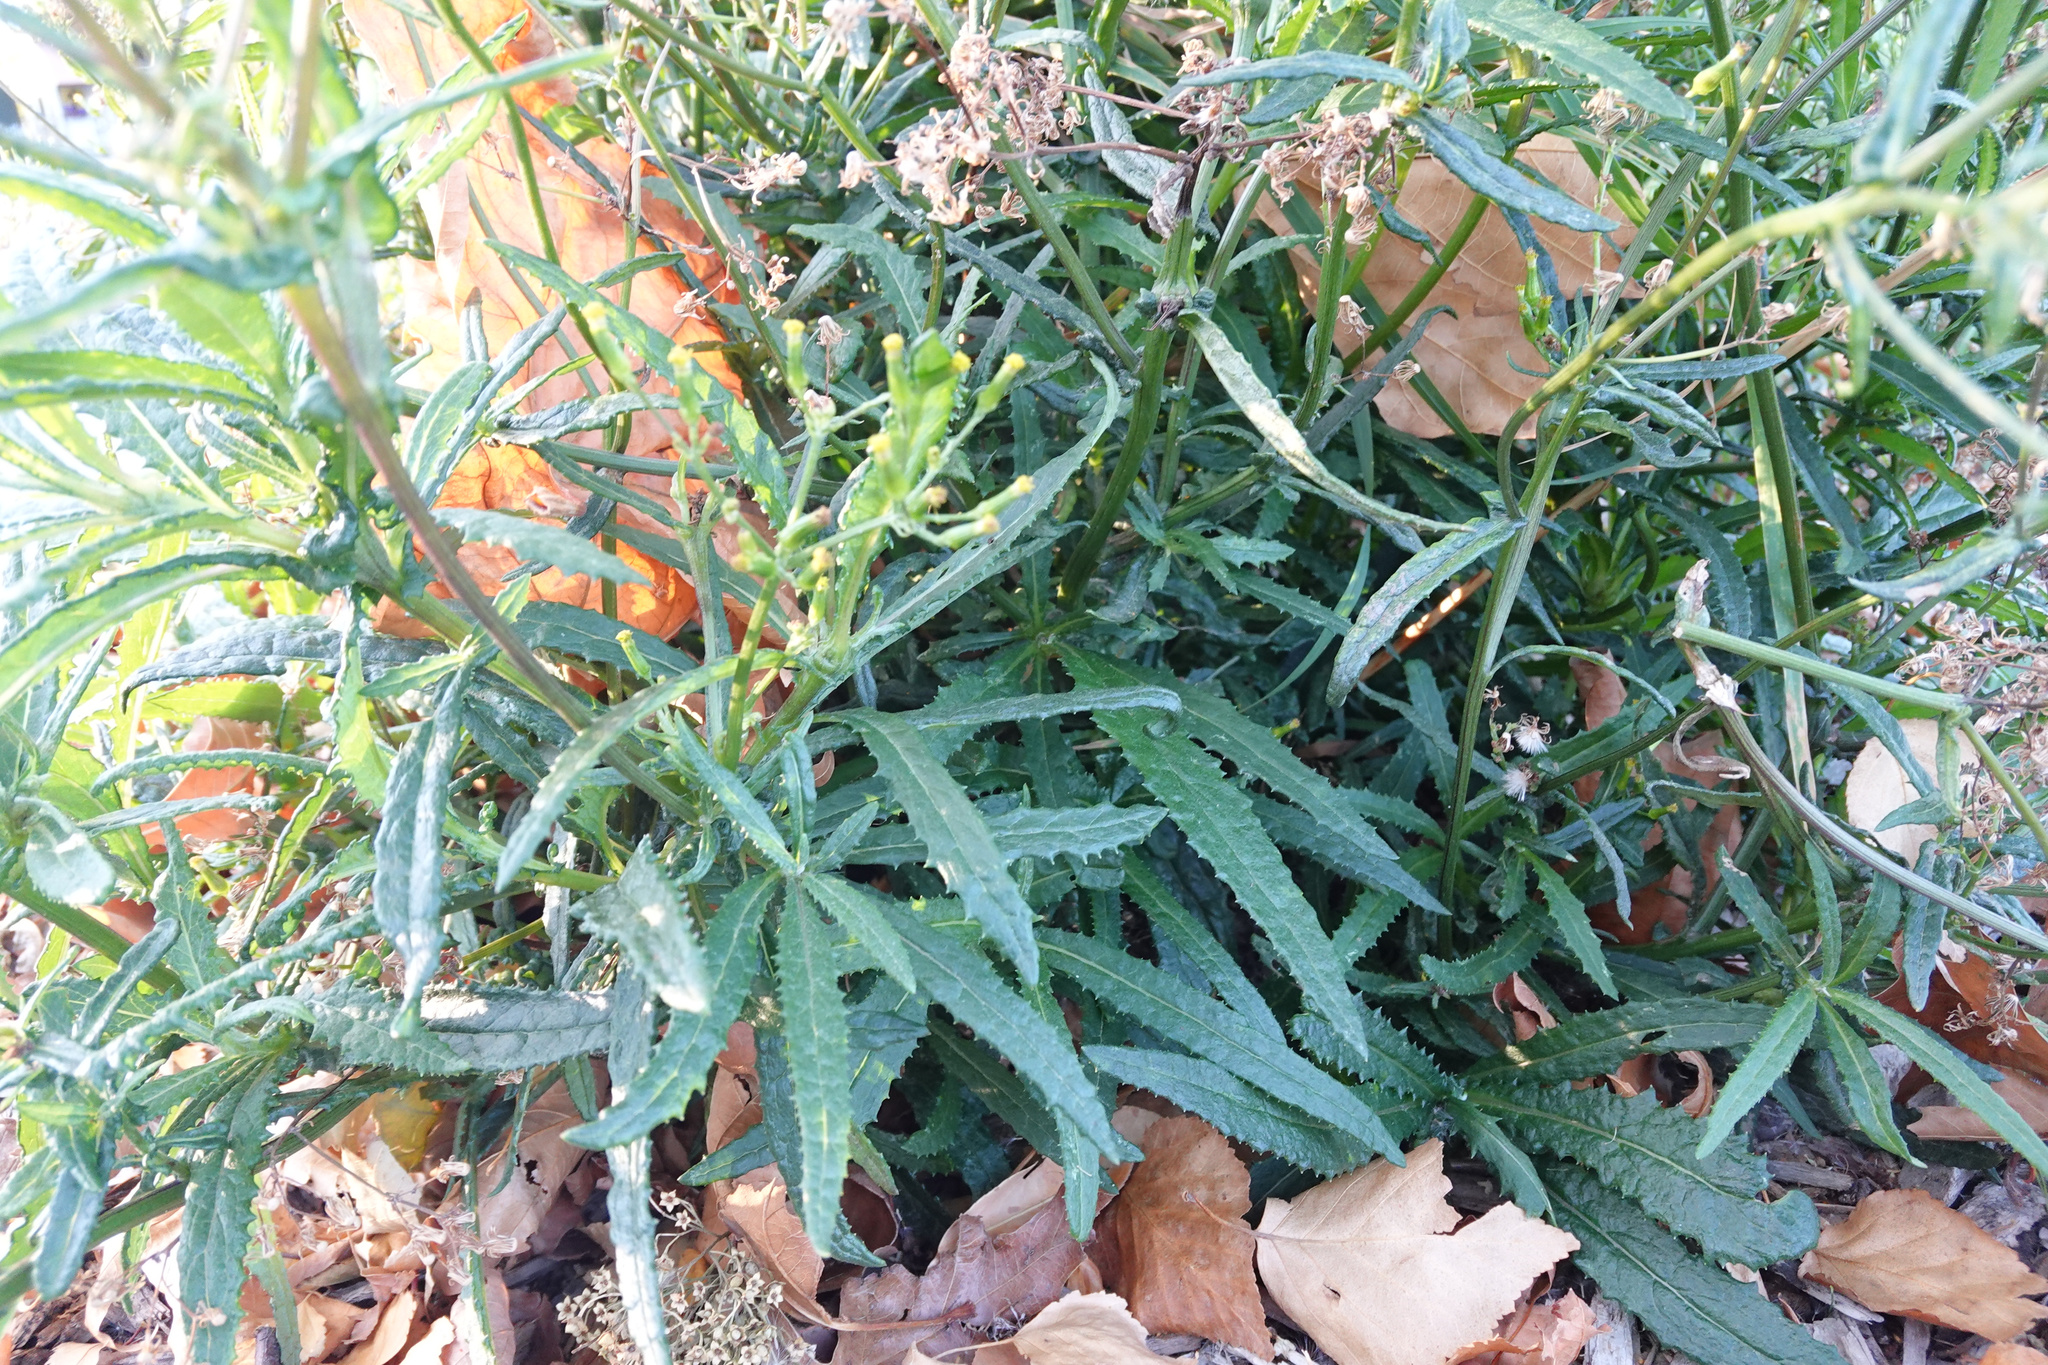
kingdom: Plantae
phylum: Tracheophyta
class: Magnoliopsida
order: Asterales
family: Asteraceae
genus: Senecio
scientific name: Senecio minimus
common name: Toothed fireweed
